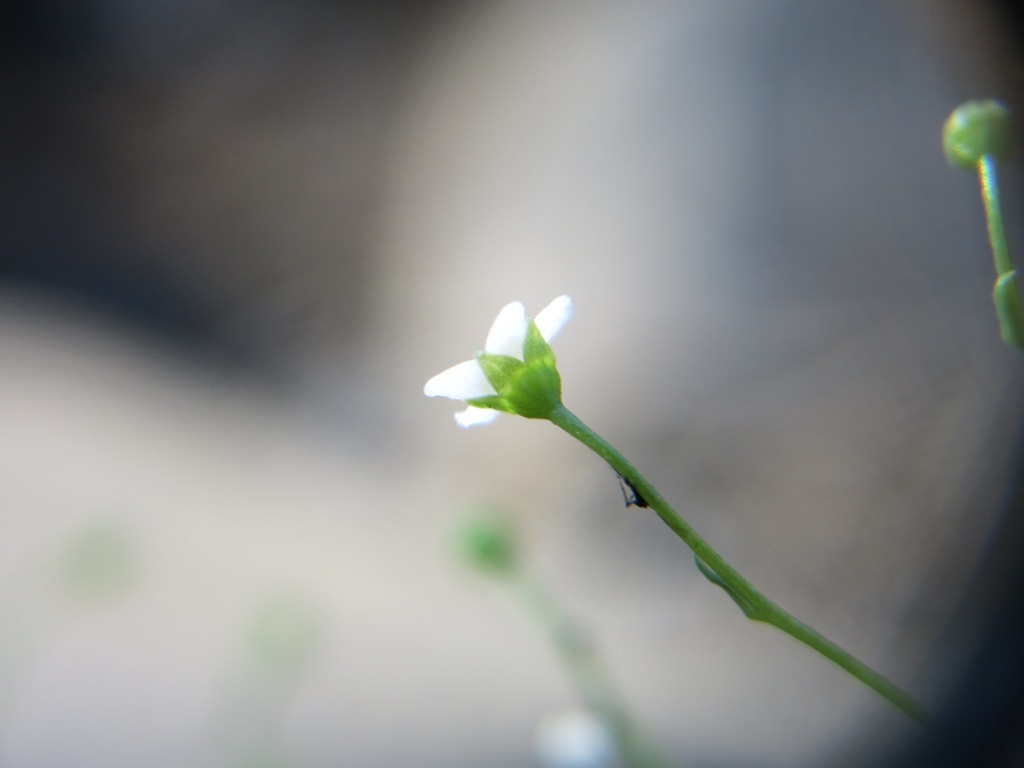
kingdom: Plantae
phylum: Tracheophyta
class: Magnoliopsida
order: Ericales
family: Primulaceae
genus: Samolus
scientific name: Samolus parviflorus
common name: False water pimpernel
